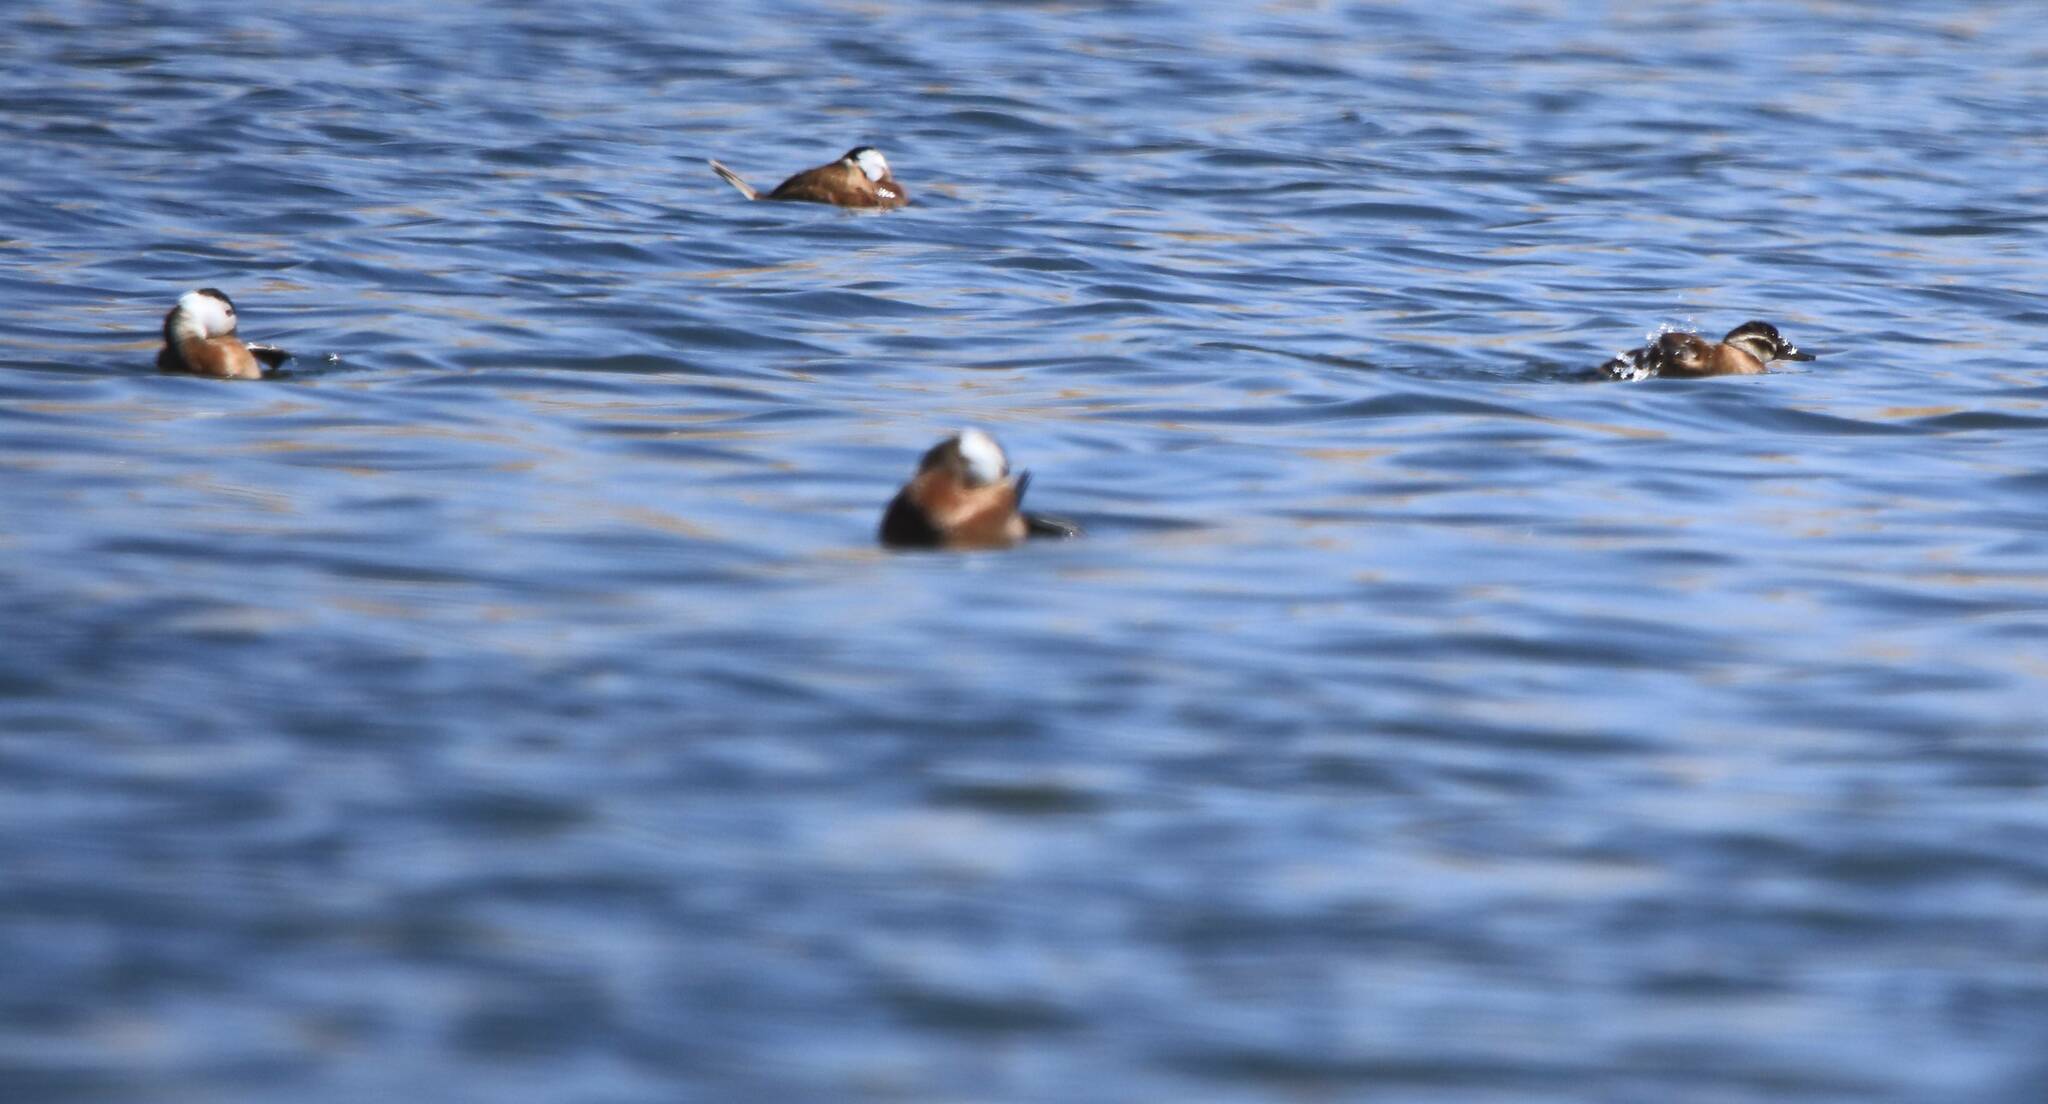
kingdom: Animalia
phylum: Chordata
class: Aves
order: Anseriformes
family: Anatidae
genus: Oxyura
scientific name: Oxyura leucocephala
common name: White-headed duck
